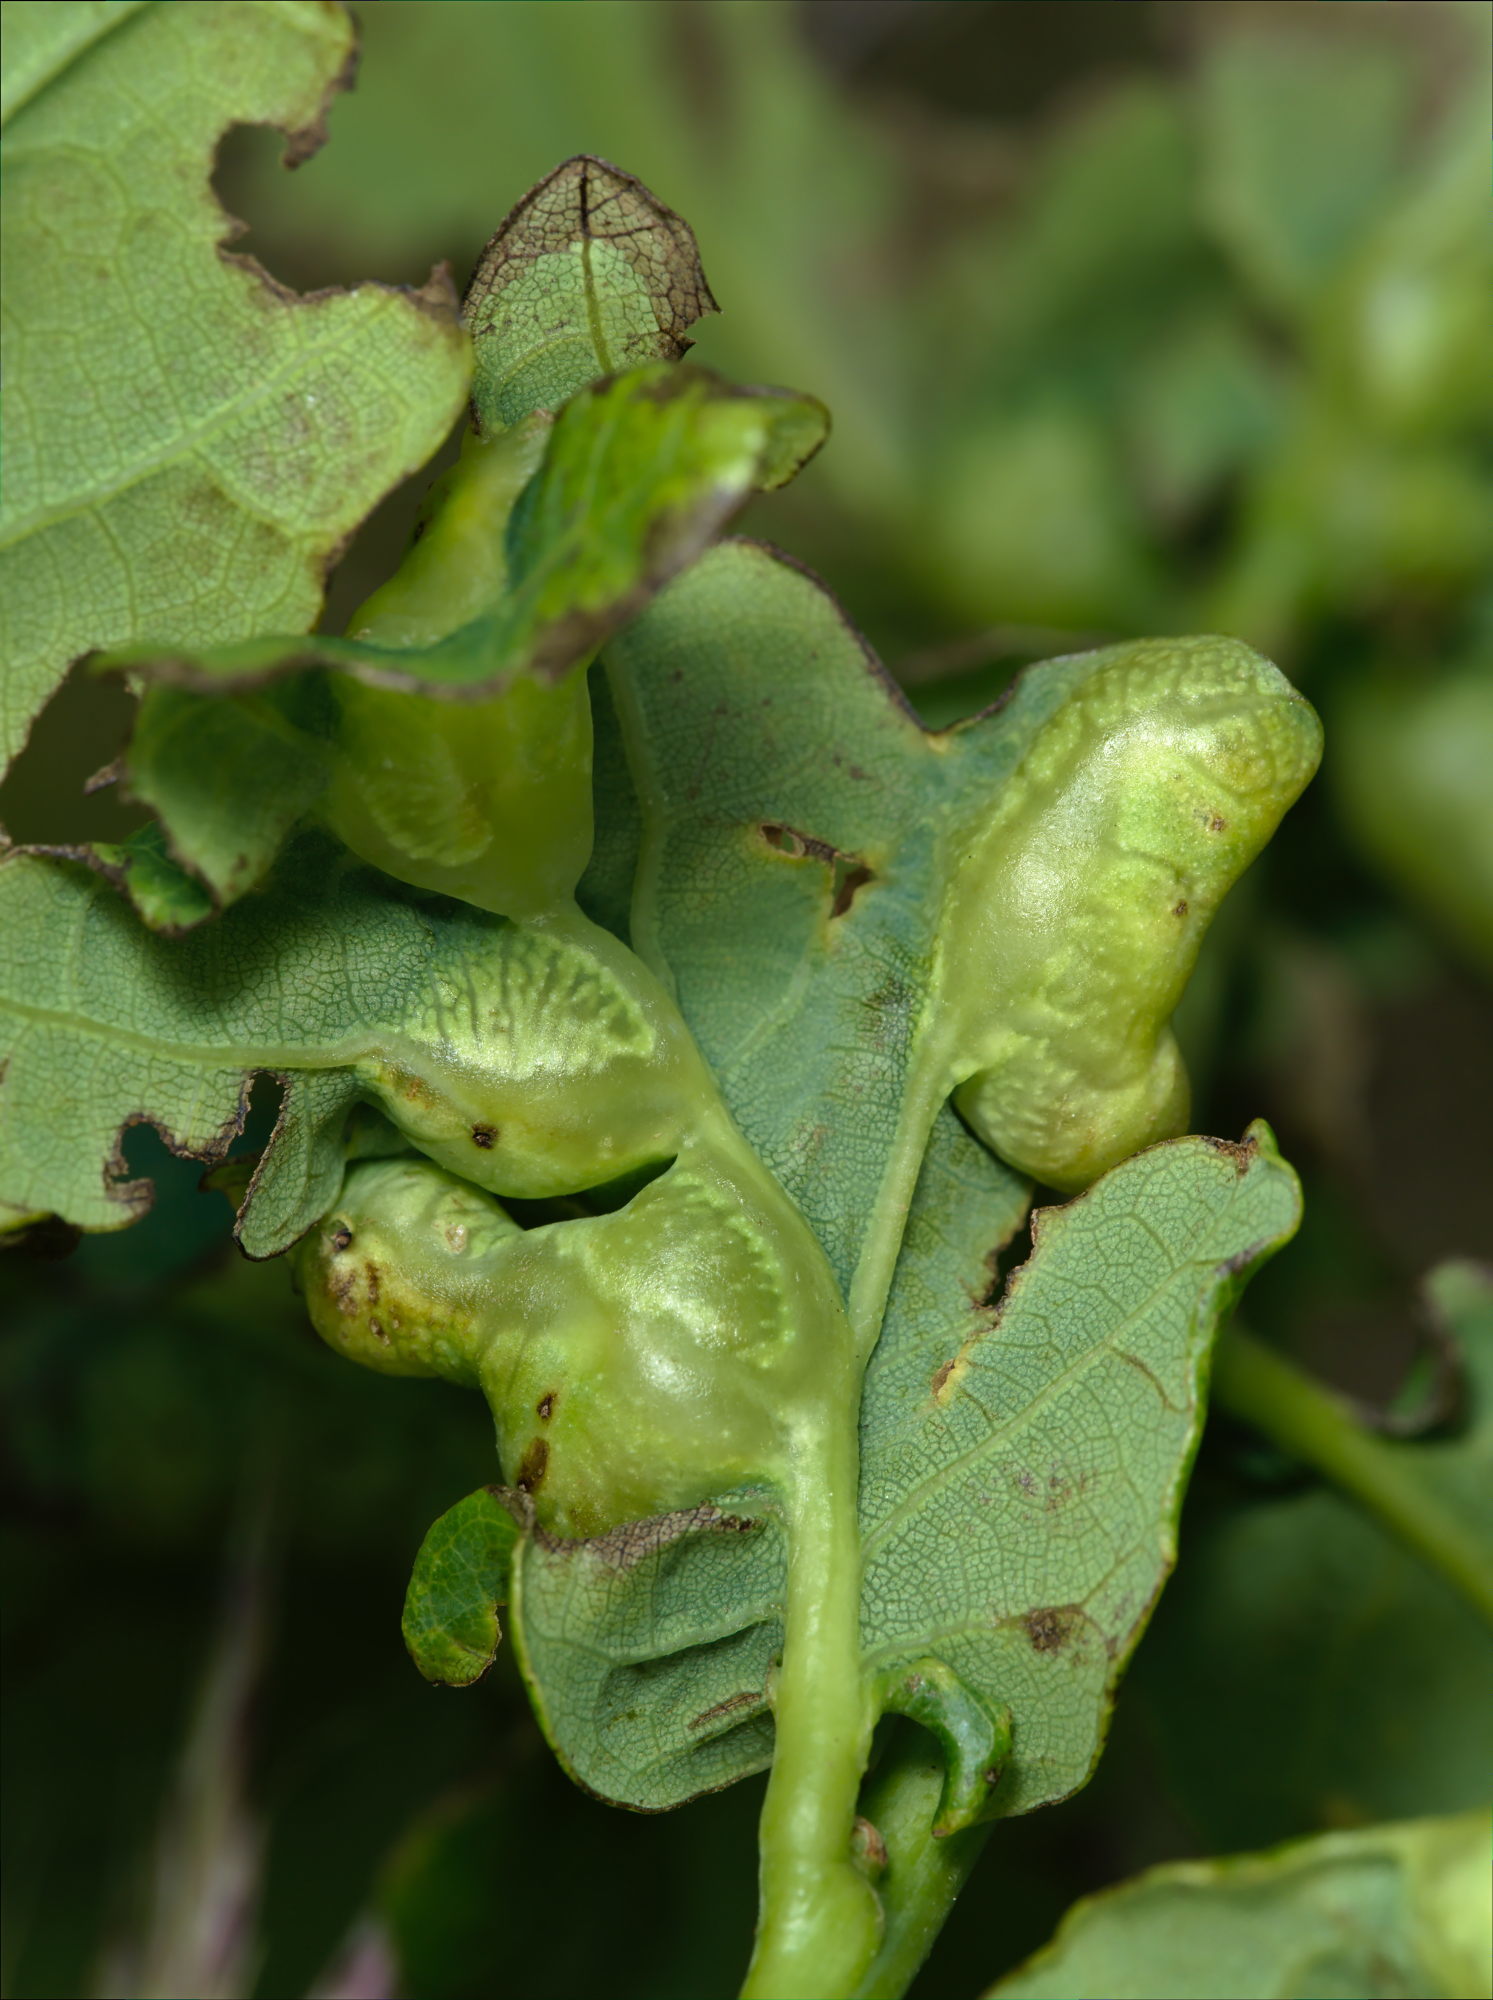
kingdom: Animalia
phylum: Arthropoda
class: Insecta
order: Hymenoptera
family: Cynipidae
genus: Andricus
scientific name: Andricus curvator
